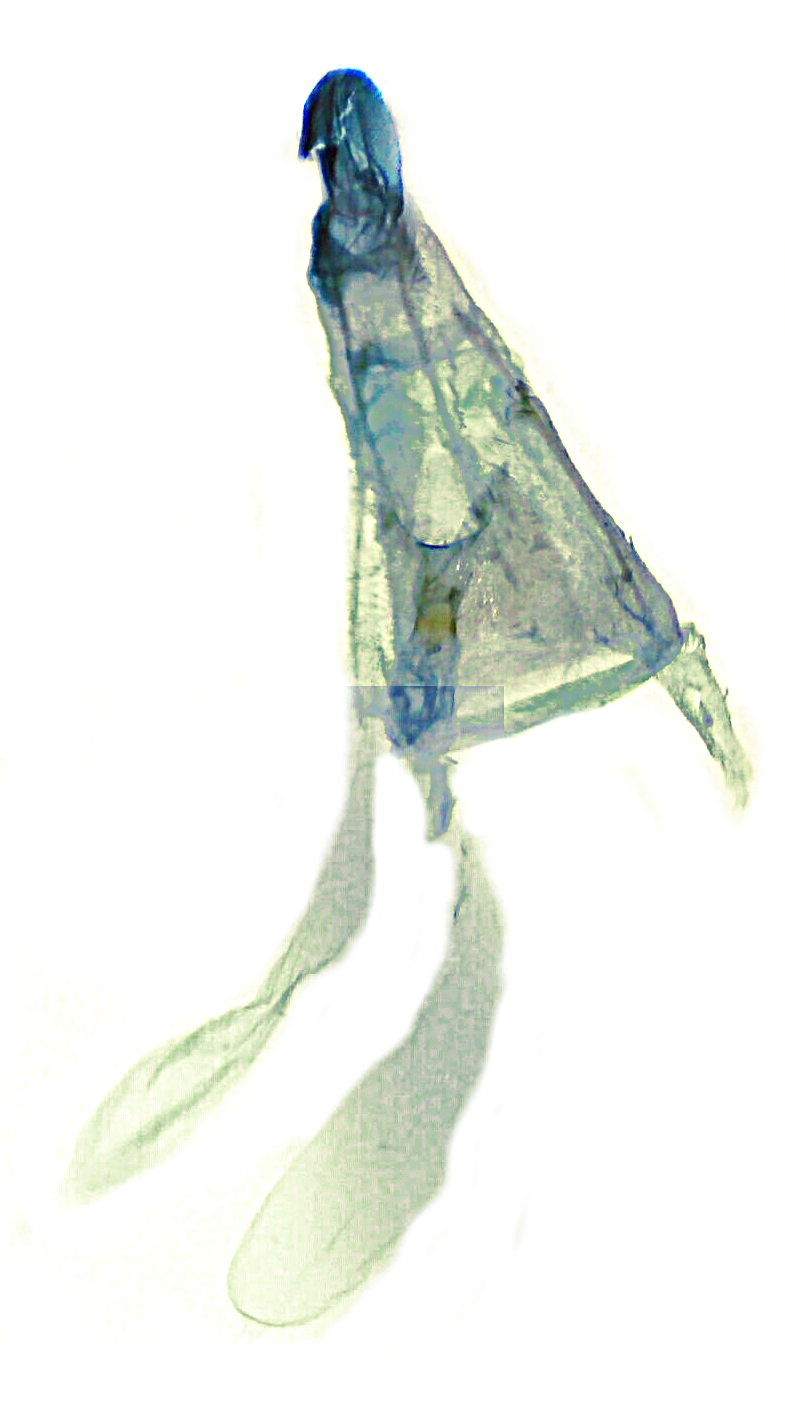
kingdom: Animalia
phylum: Arthropoda
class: Insecta
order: Lepidoptera
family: Crambidae
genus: Elophila
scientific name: Elophila tinealis
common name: Black duckweed moth
